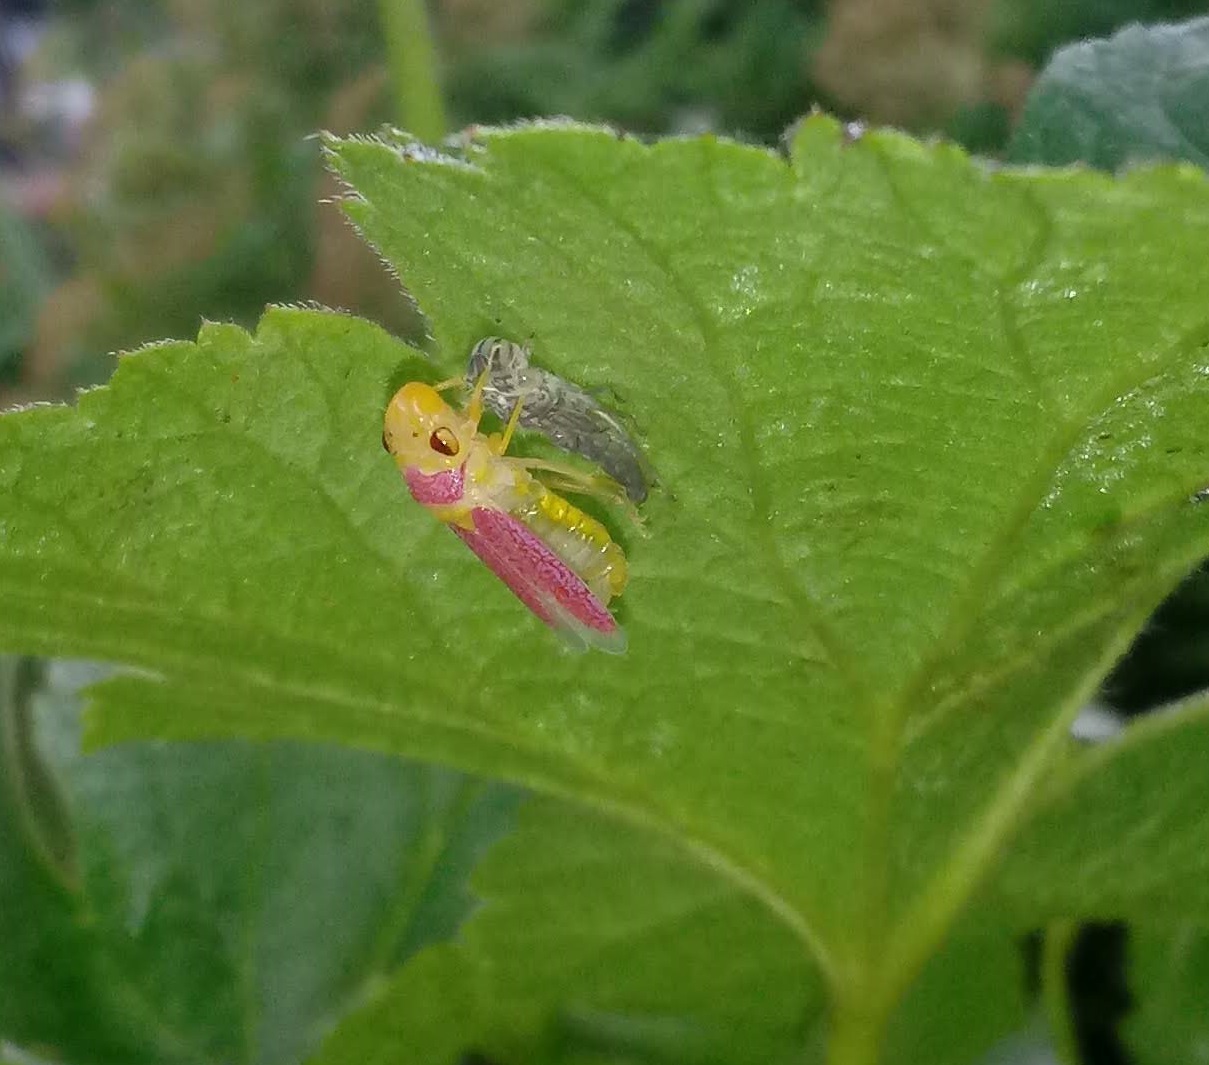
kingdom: Animalia
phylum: Arthropoda
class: Insecta
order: Hemiptera
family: Cicadellidae
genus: Oncometopia
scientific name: Oncometopia orbona
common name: Broad-headed sharpshooter
